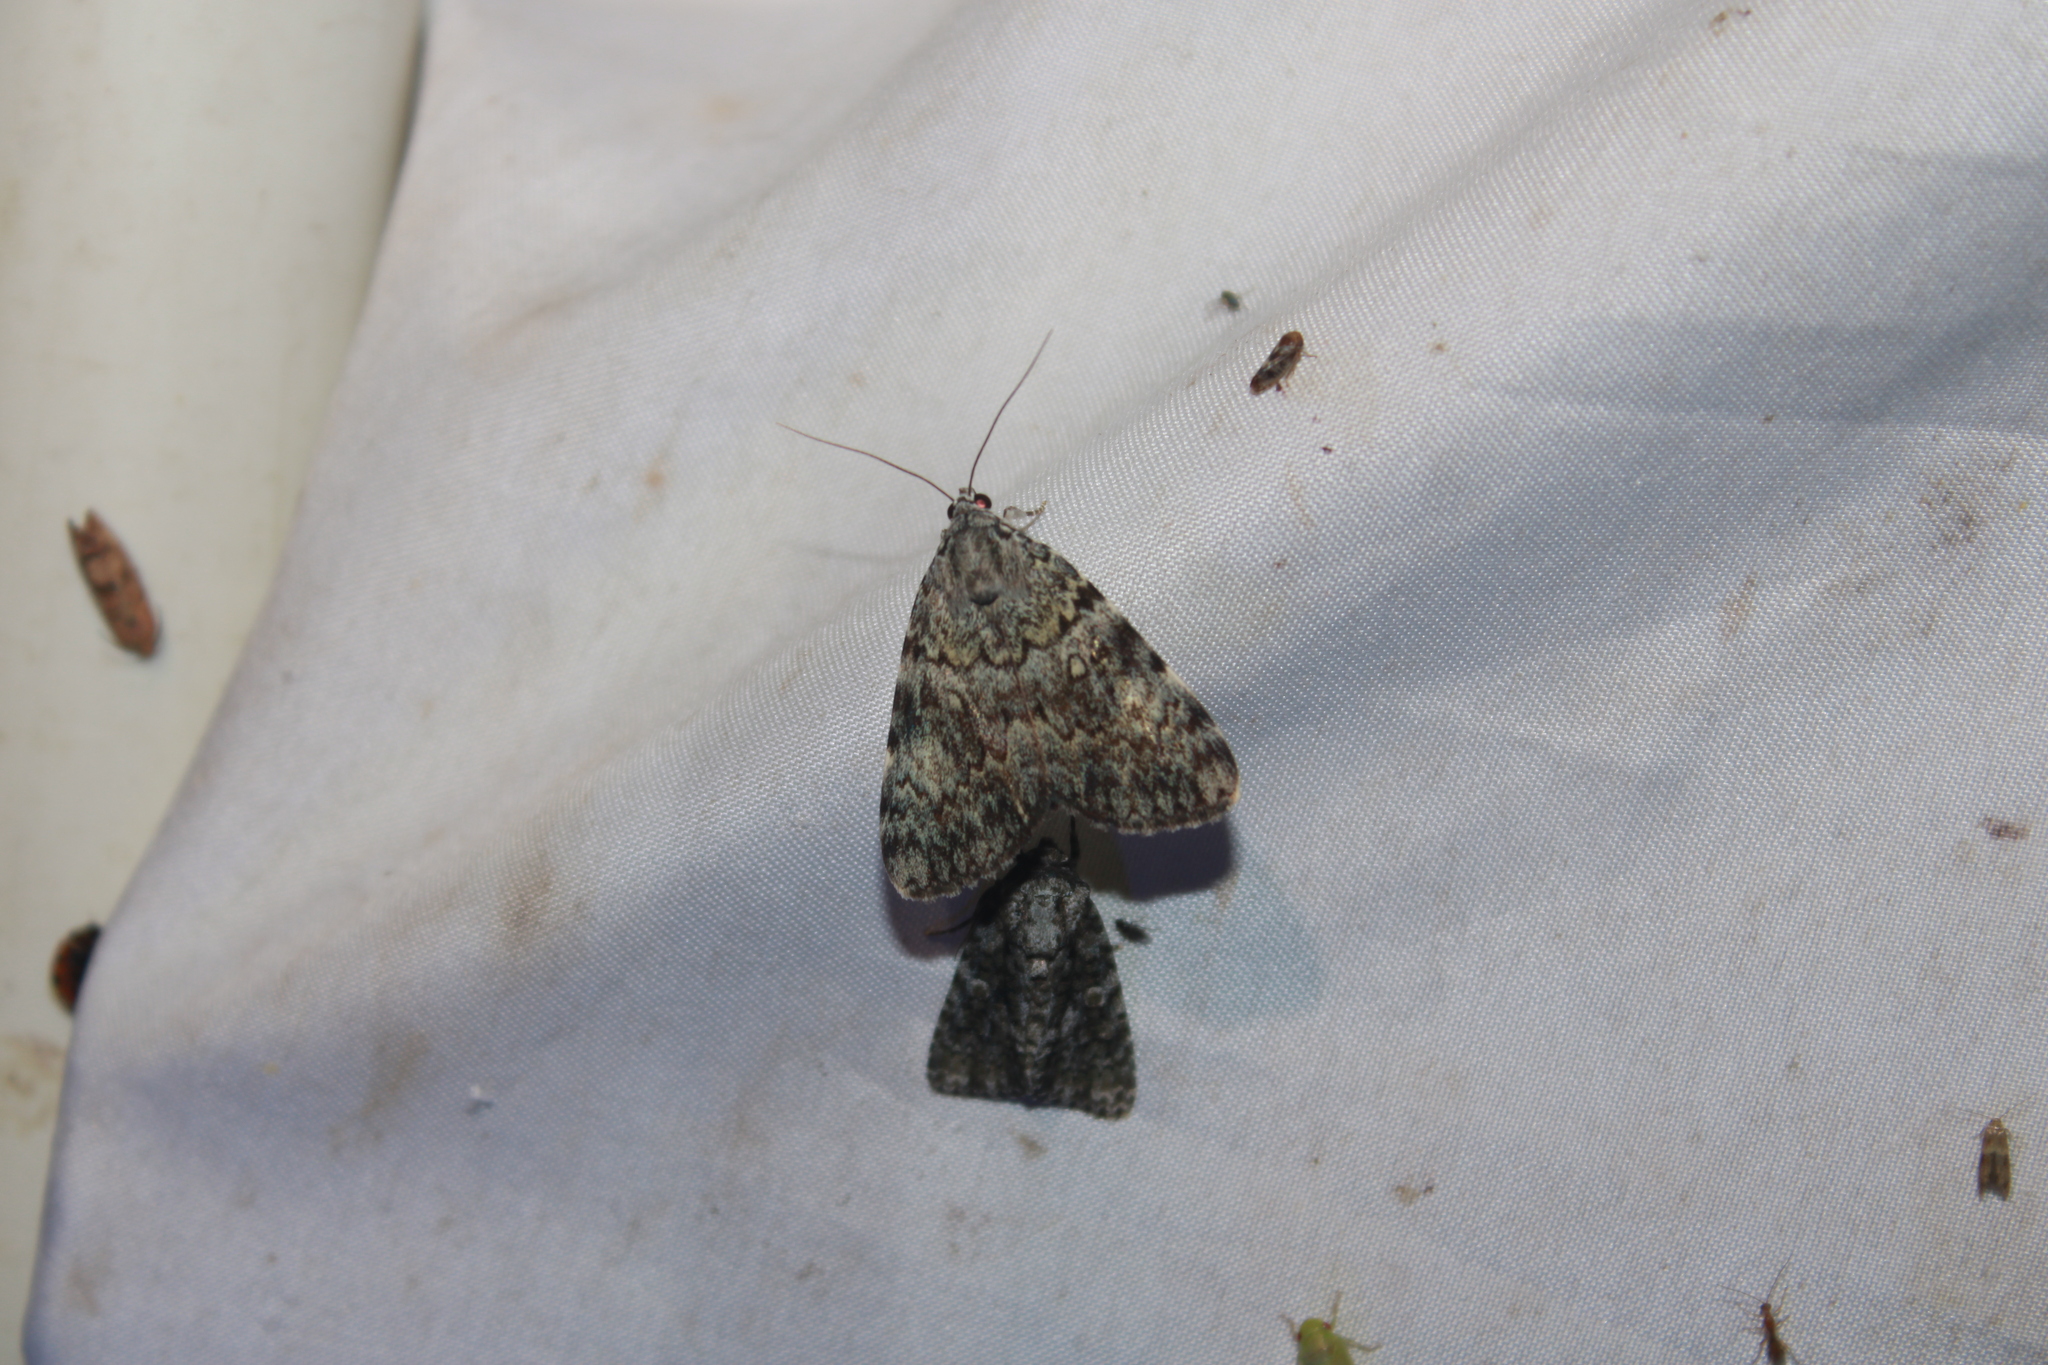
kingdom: Animalia
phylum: Arthropoda
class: Insecta
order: Lepidoptera
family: Erebidae
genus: Catocala
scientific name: Catocala lineella
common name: Little lined underwing
